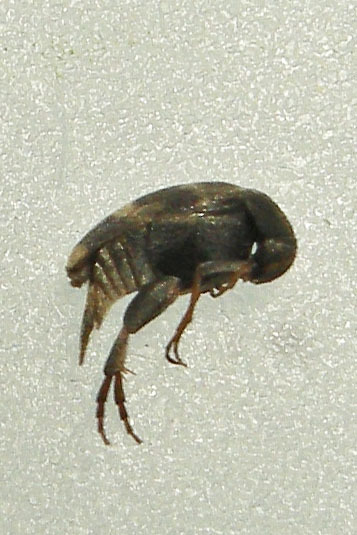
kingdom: Animalia
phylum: Arthropoda
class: Insecta
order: Coleoptera
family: Mordellidae
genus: Falsomordellistena
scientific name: Falsomordellistena pubescens
